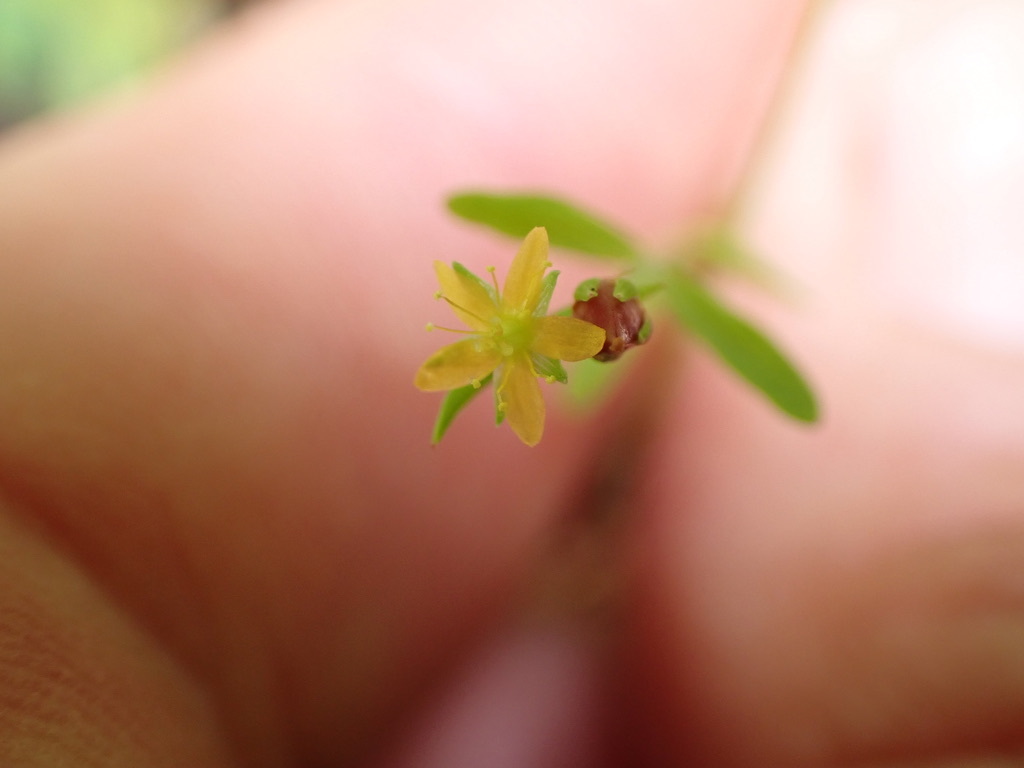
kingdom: Plantae
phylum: Tracheophyta
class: Magnoliopsida
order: Malpighiales
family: Hypericaceae
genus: Hypericum
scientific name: Hypericum canadense
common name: Irish st. john's-wort
